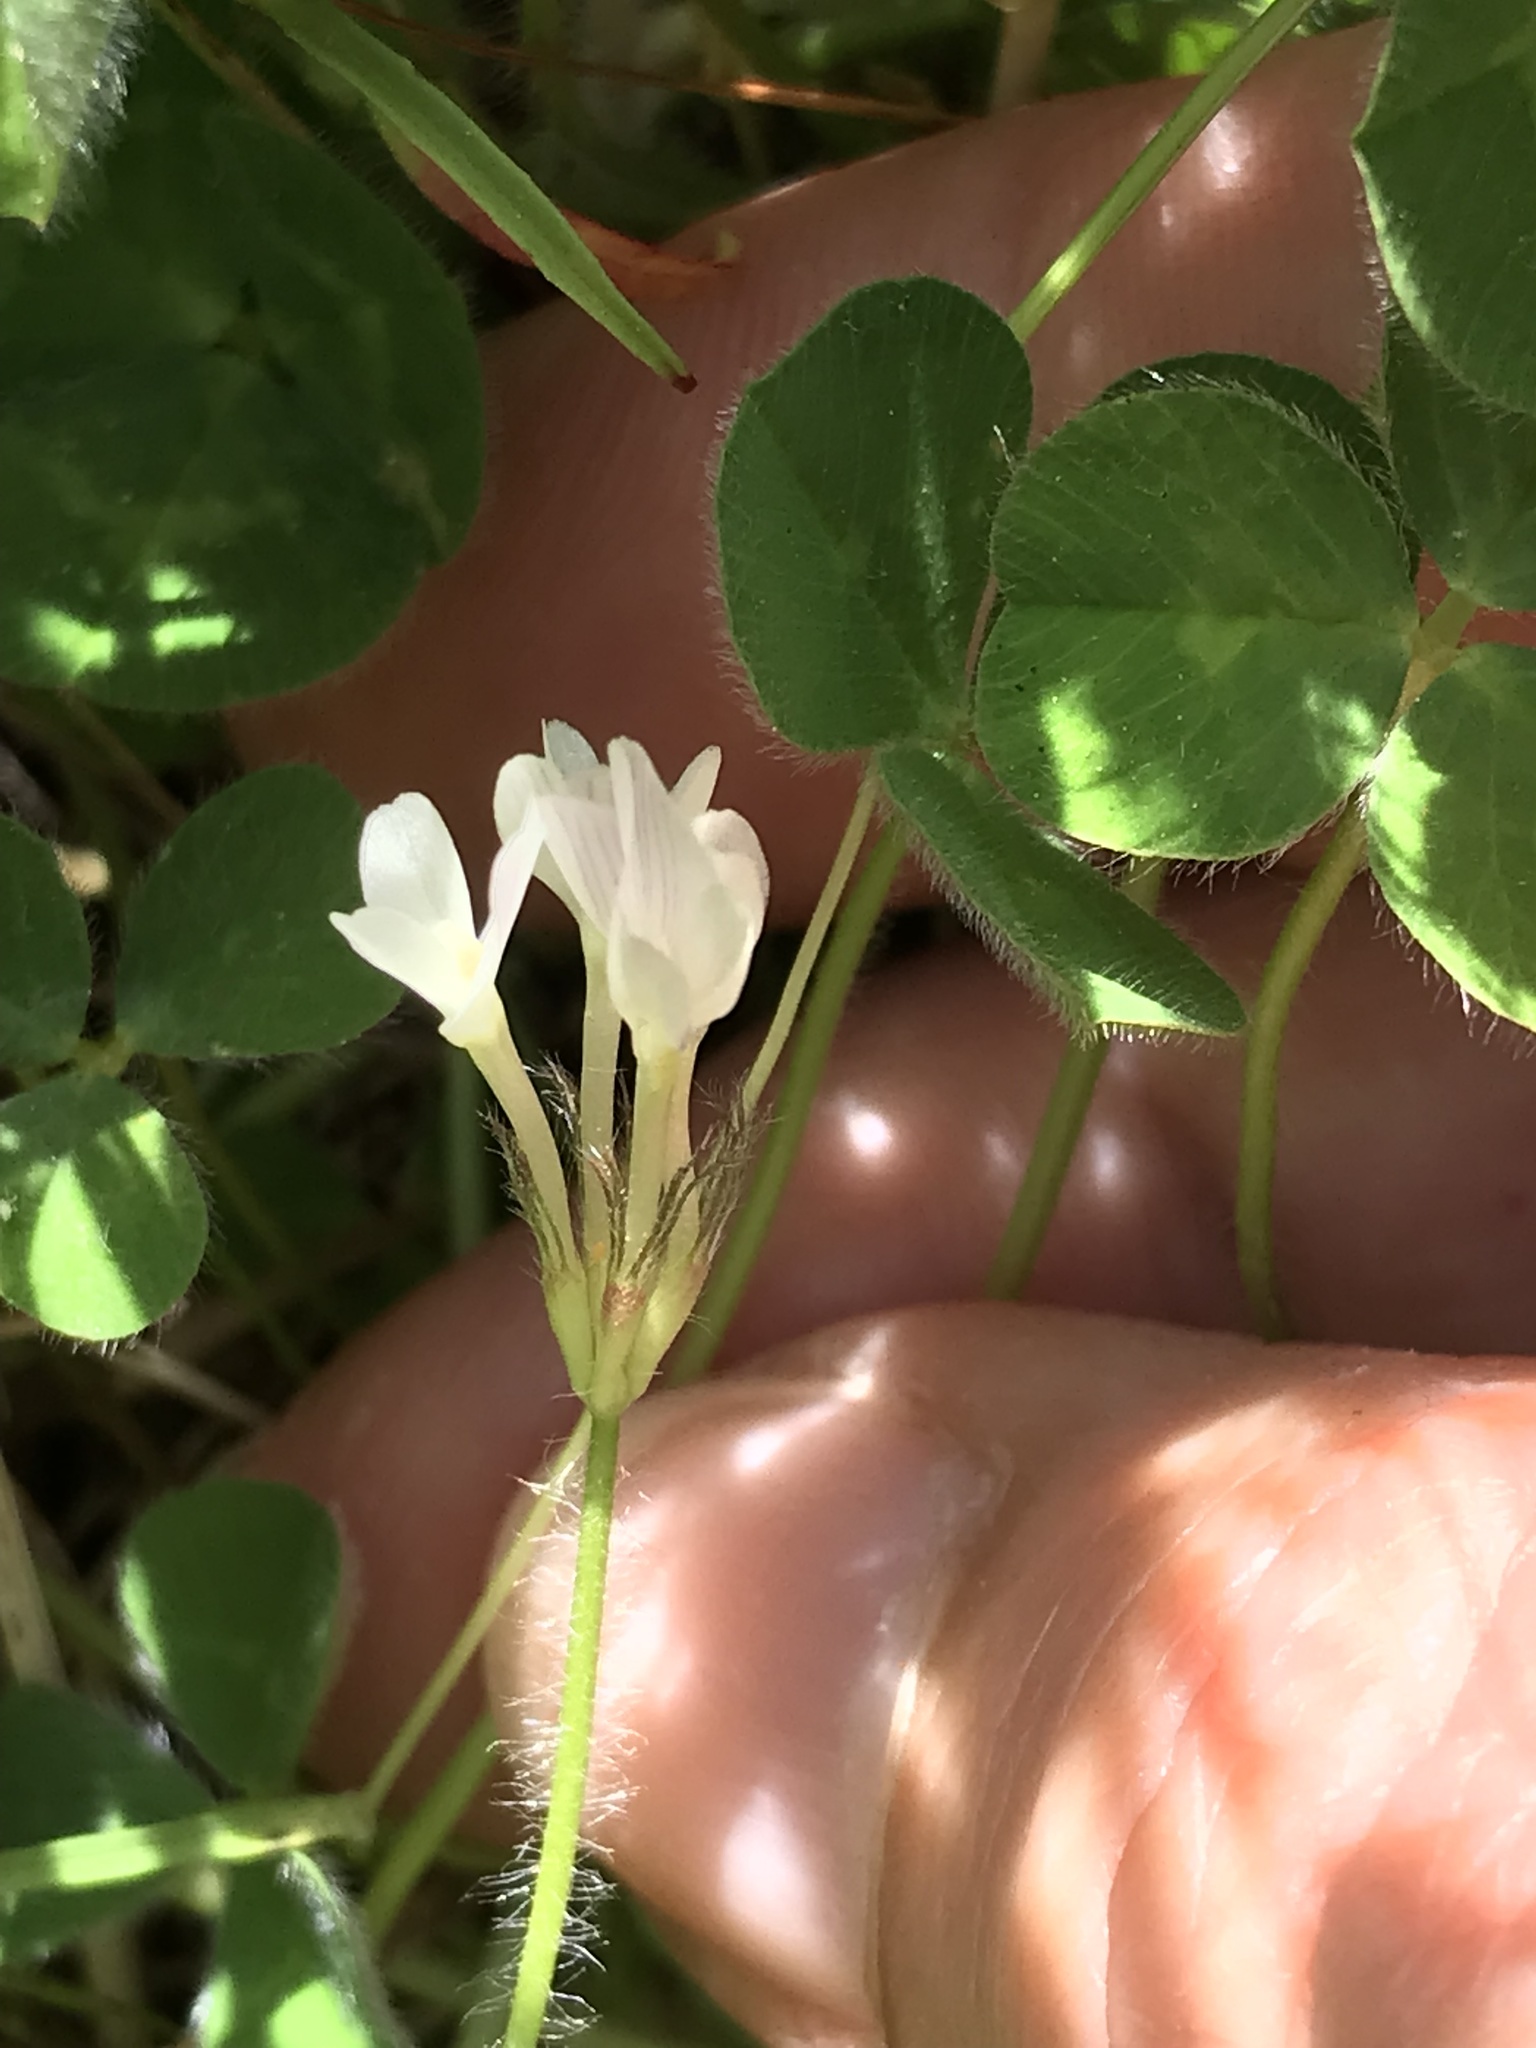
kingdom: Plantae
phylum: Tracheophyta
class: Magnoliopsida
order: Fabales
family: Fabaceae
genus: Trifolium
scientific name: Trifolium subterraneum
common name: Subterranean clover
